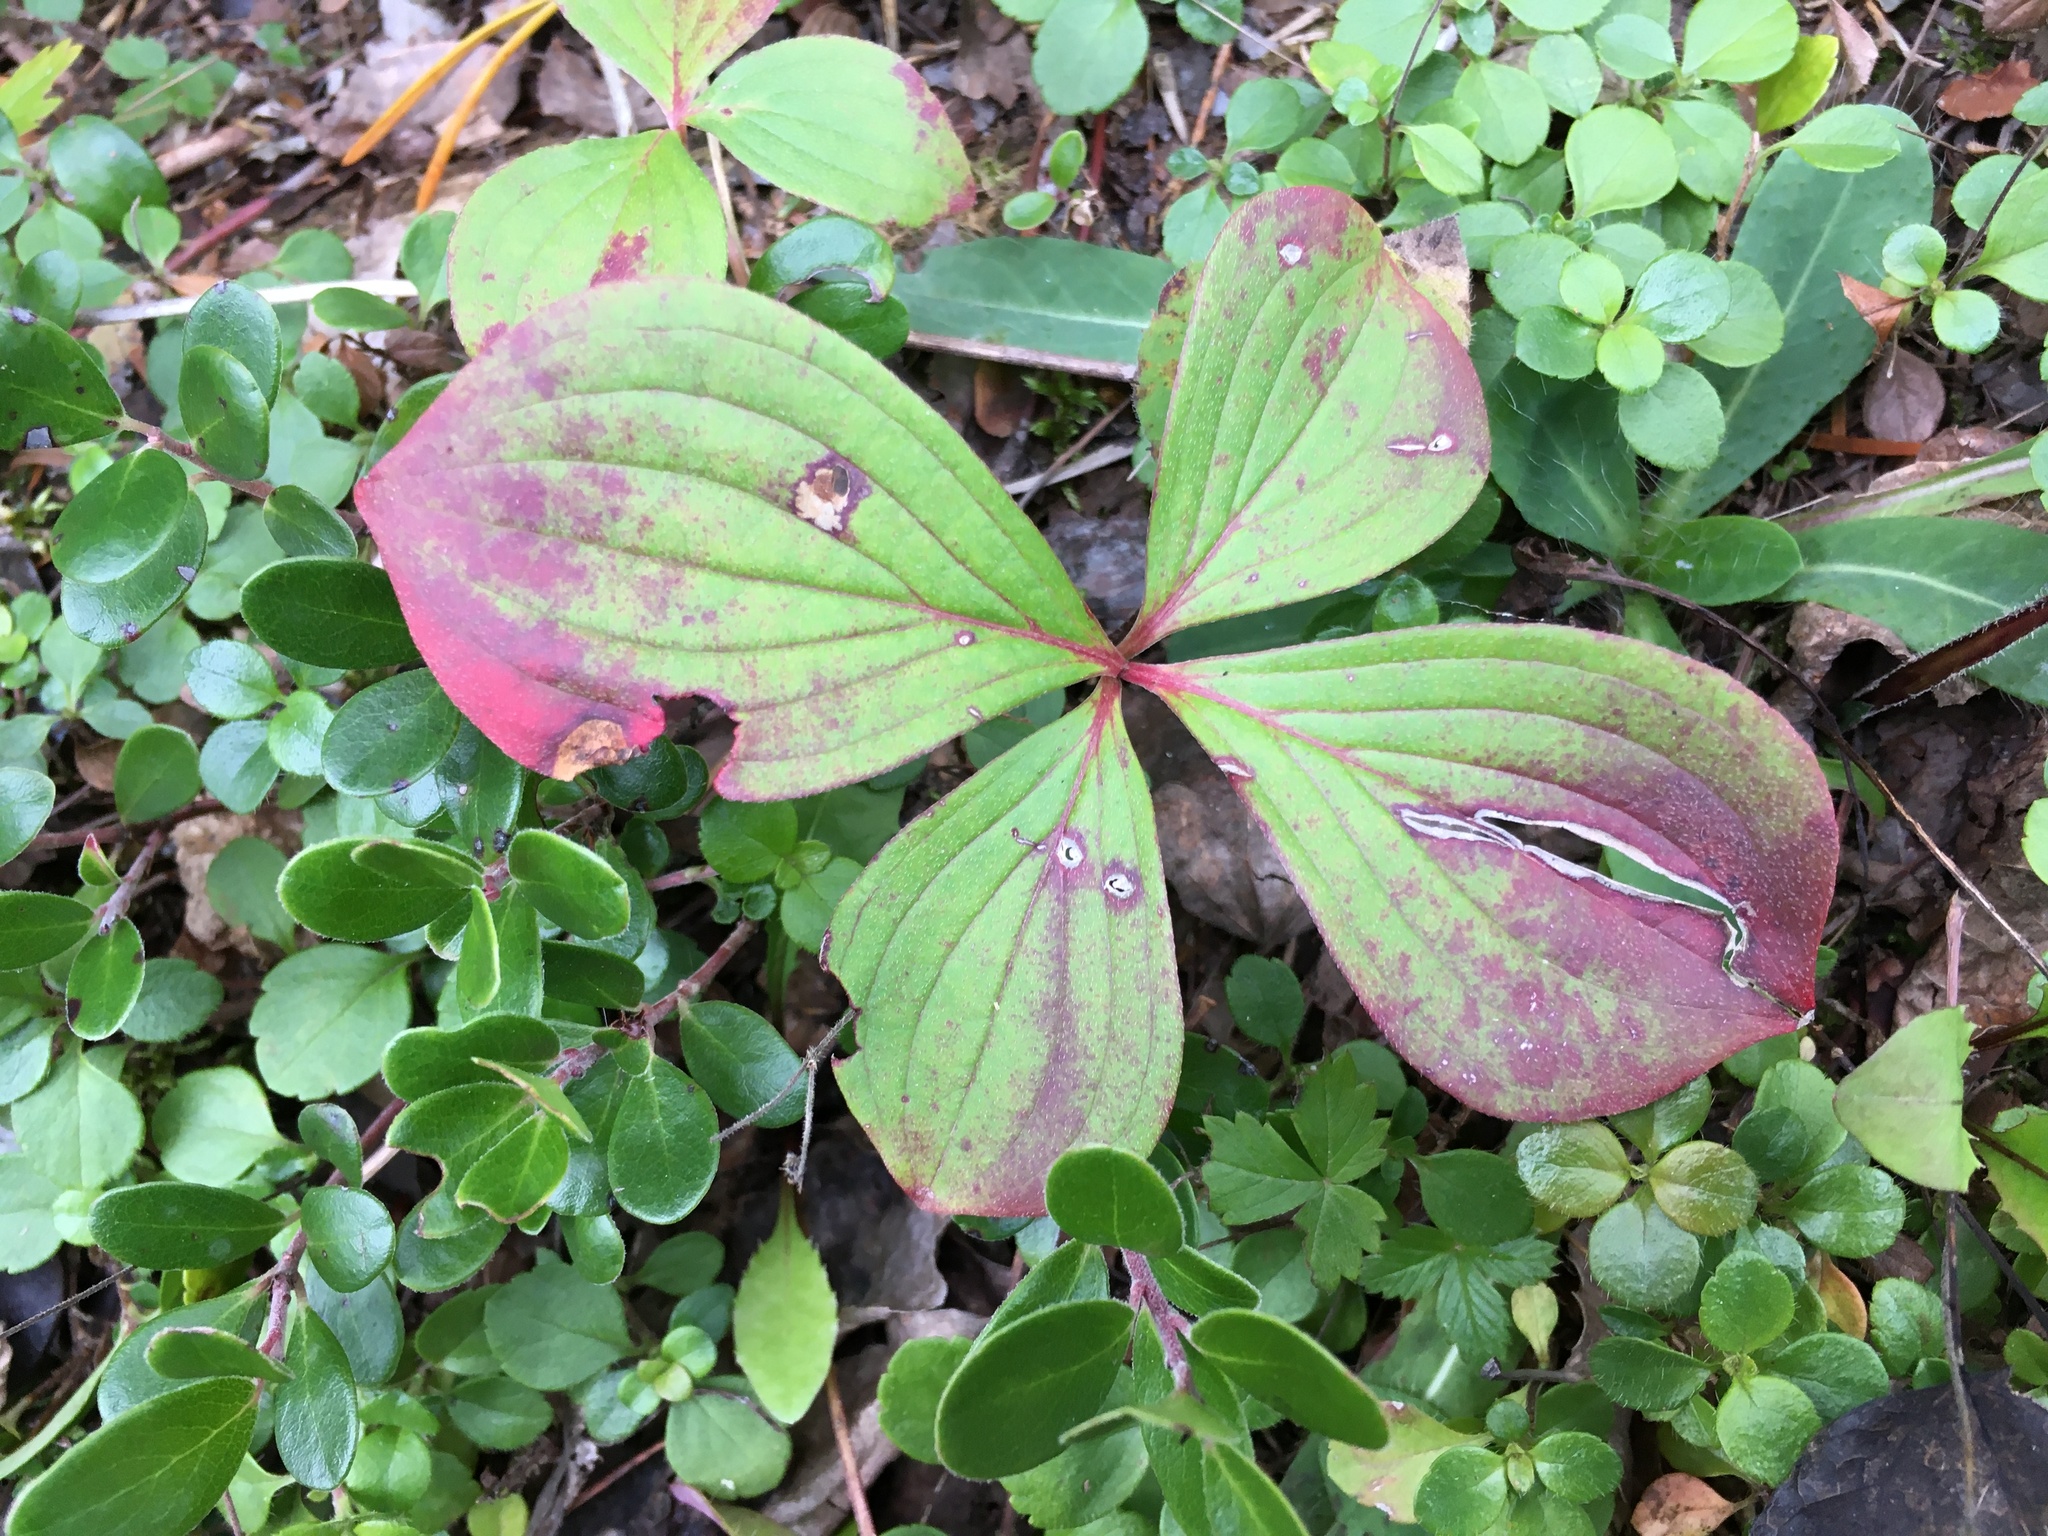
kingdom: Plantae
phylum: Tracheophyta
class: Magnoliopsida
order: Cornales
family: Cornaceae
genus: Cornus
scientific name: Cornus canadensis
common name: Creeping dogwood
